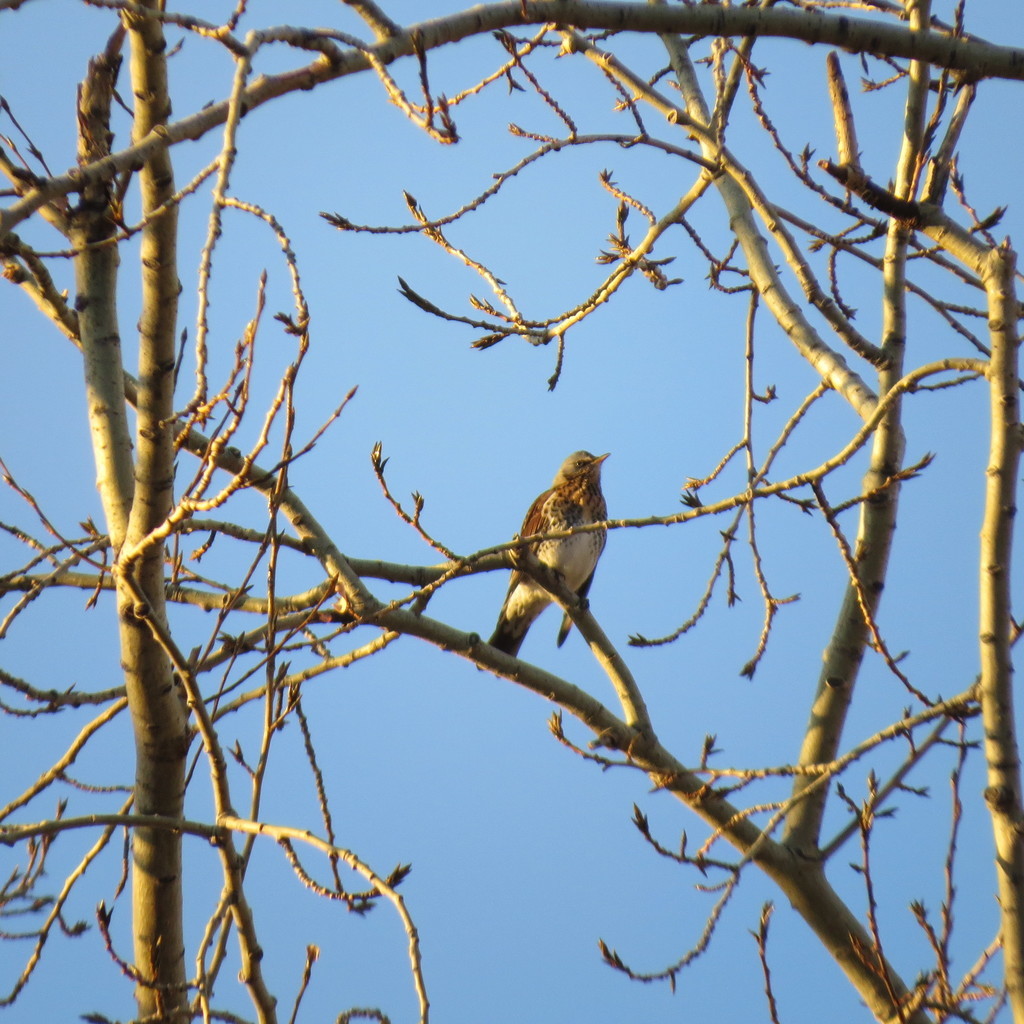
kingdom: Animalia
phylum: Chordata
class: Aves
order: Passeriformes
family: Turdidae
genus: Turdus
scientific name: Turdus pilaris
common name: Fieldfare
